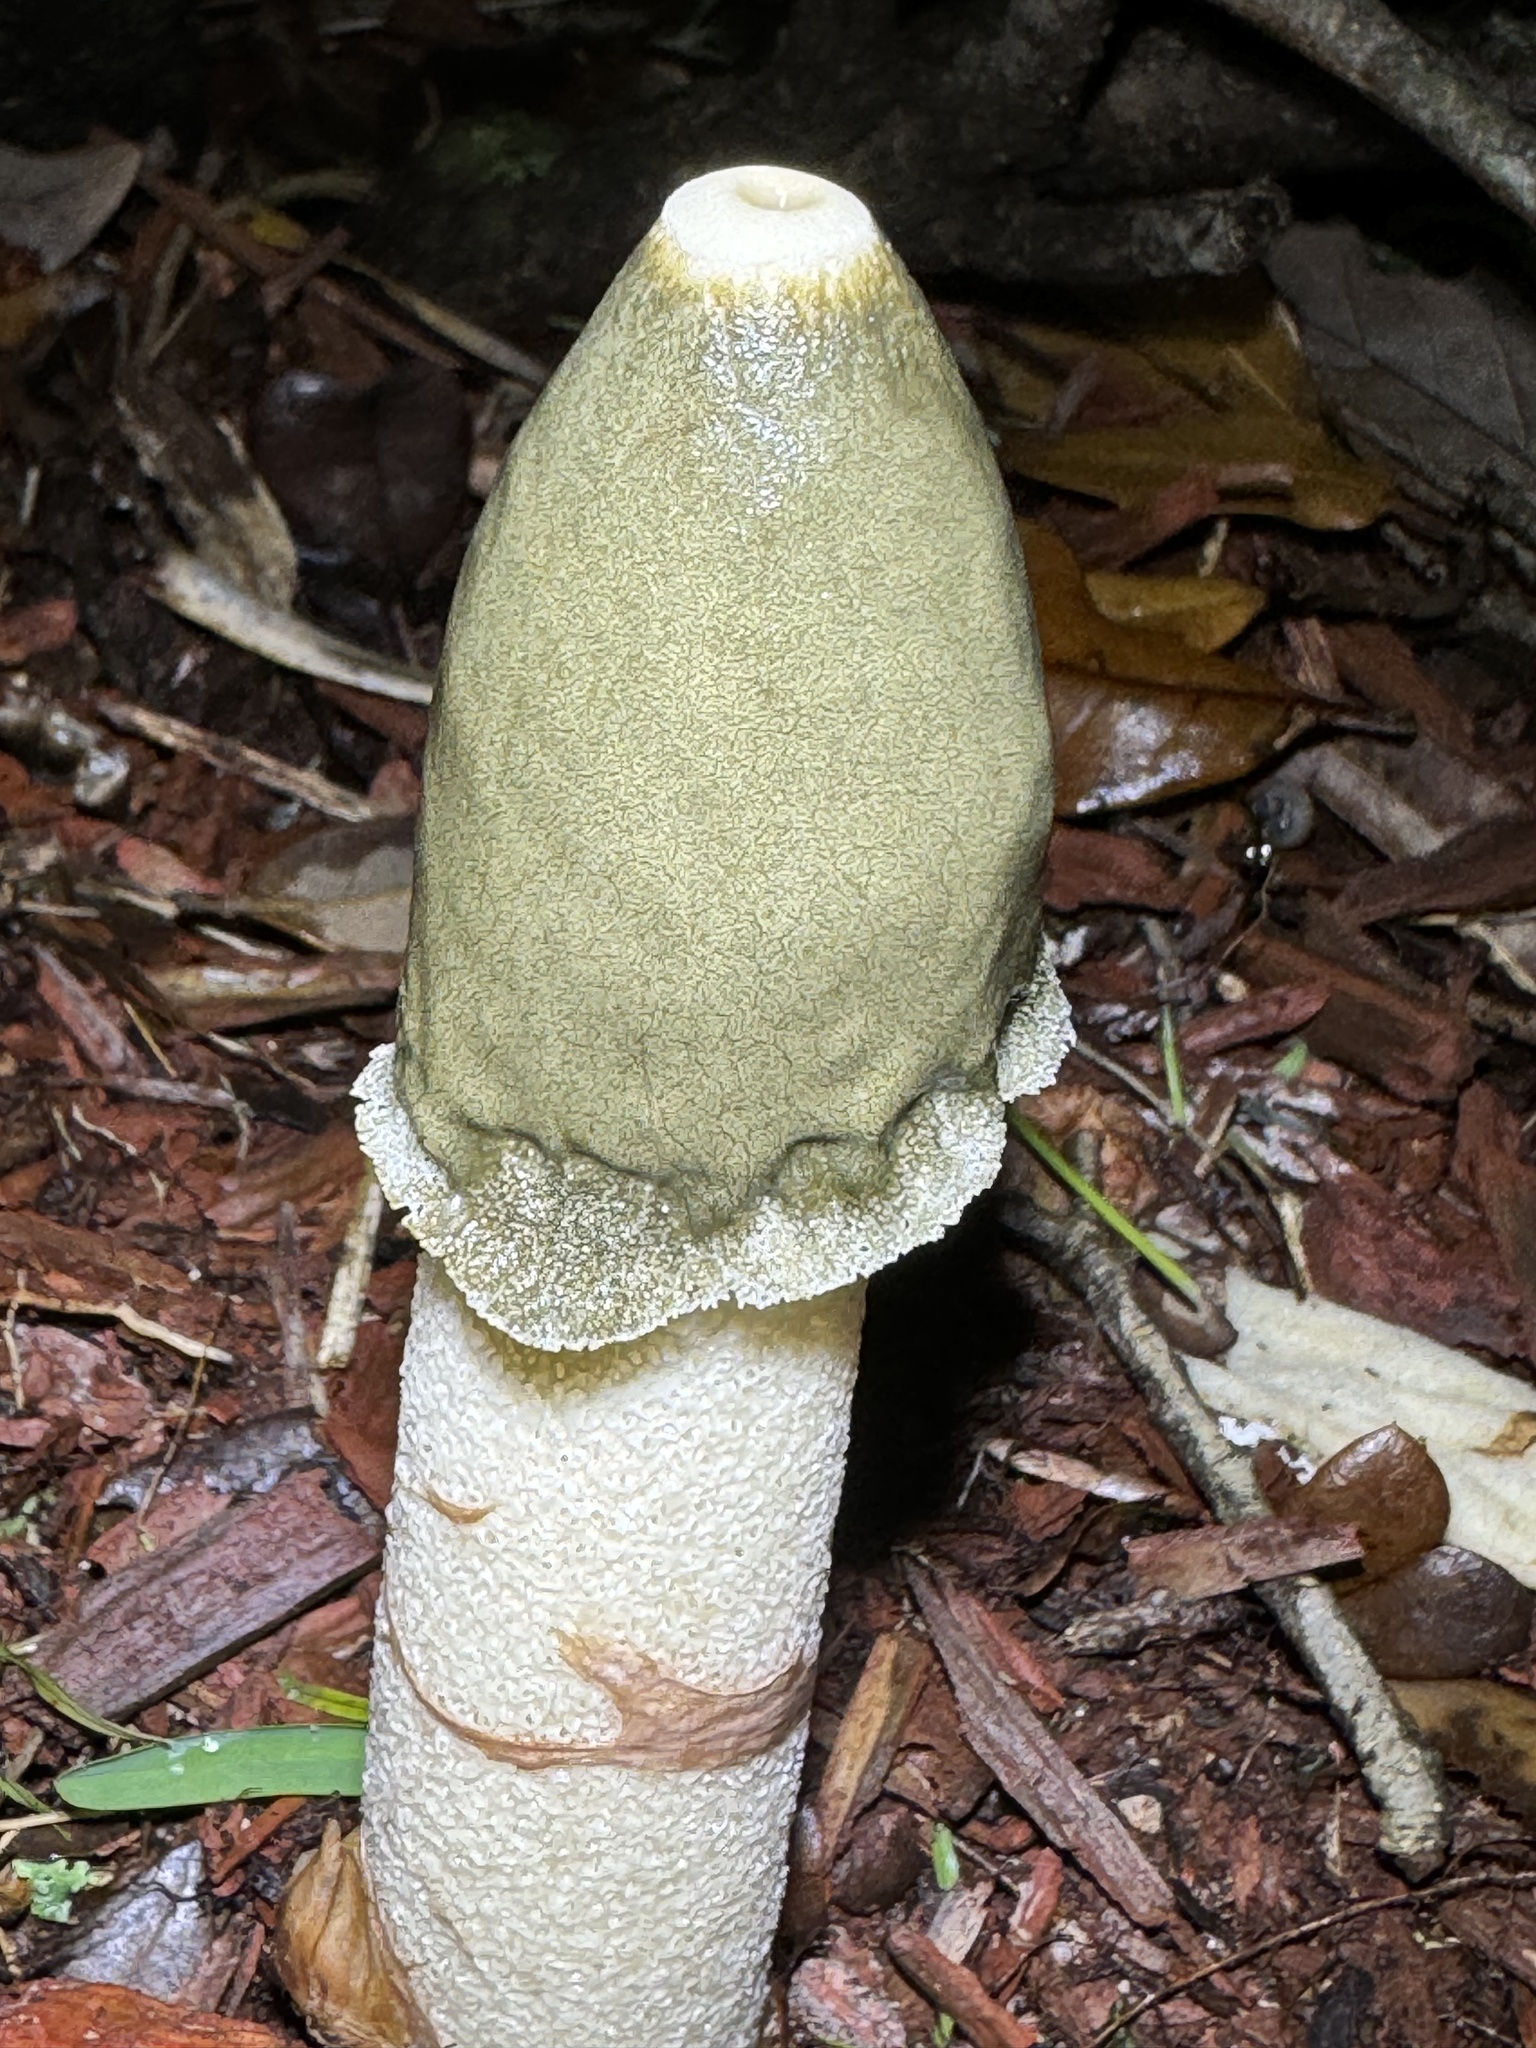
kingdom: Fungi
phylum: Basidiomycota
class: Agaricomycetes
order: Phallales
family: Phallaceae
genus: Phallus
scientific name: Phallus ravenelii
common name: Ravenel's stinkhorn
